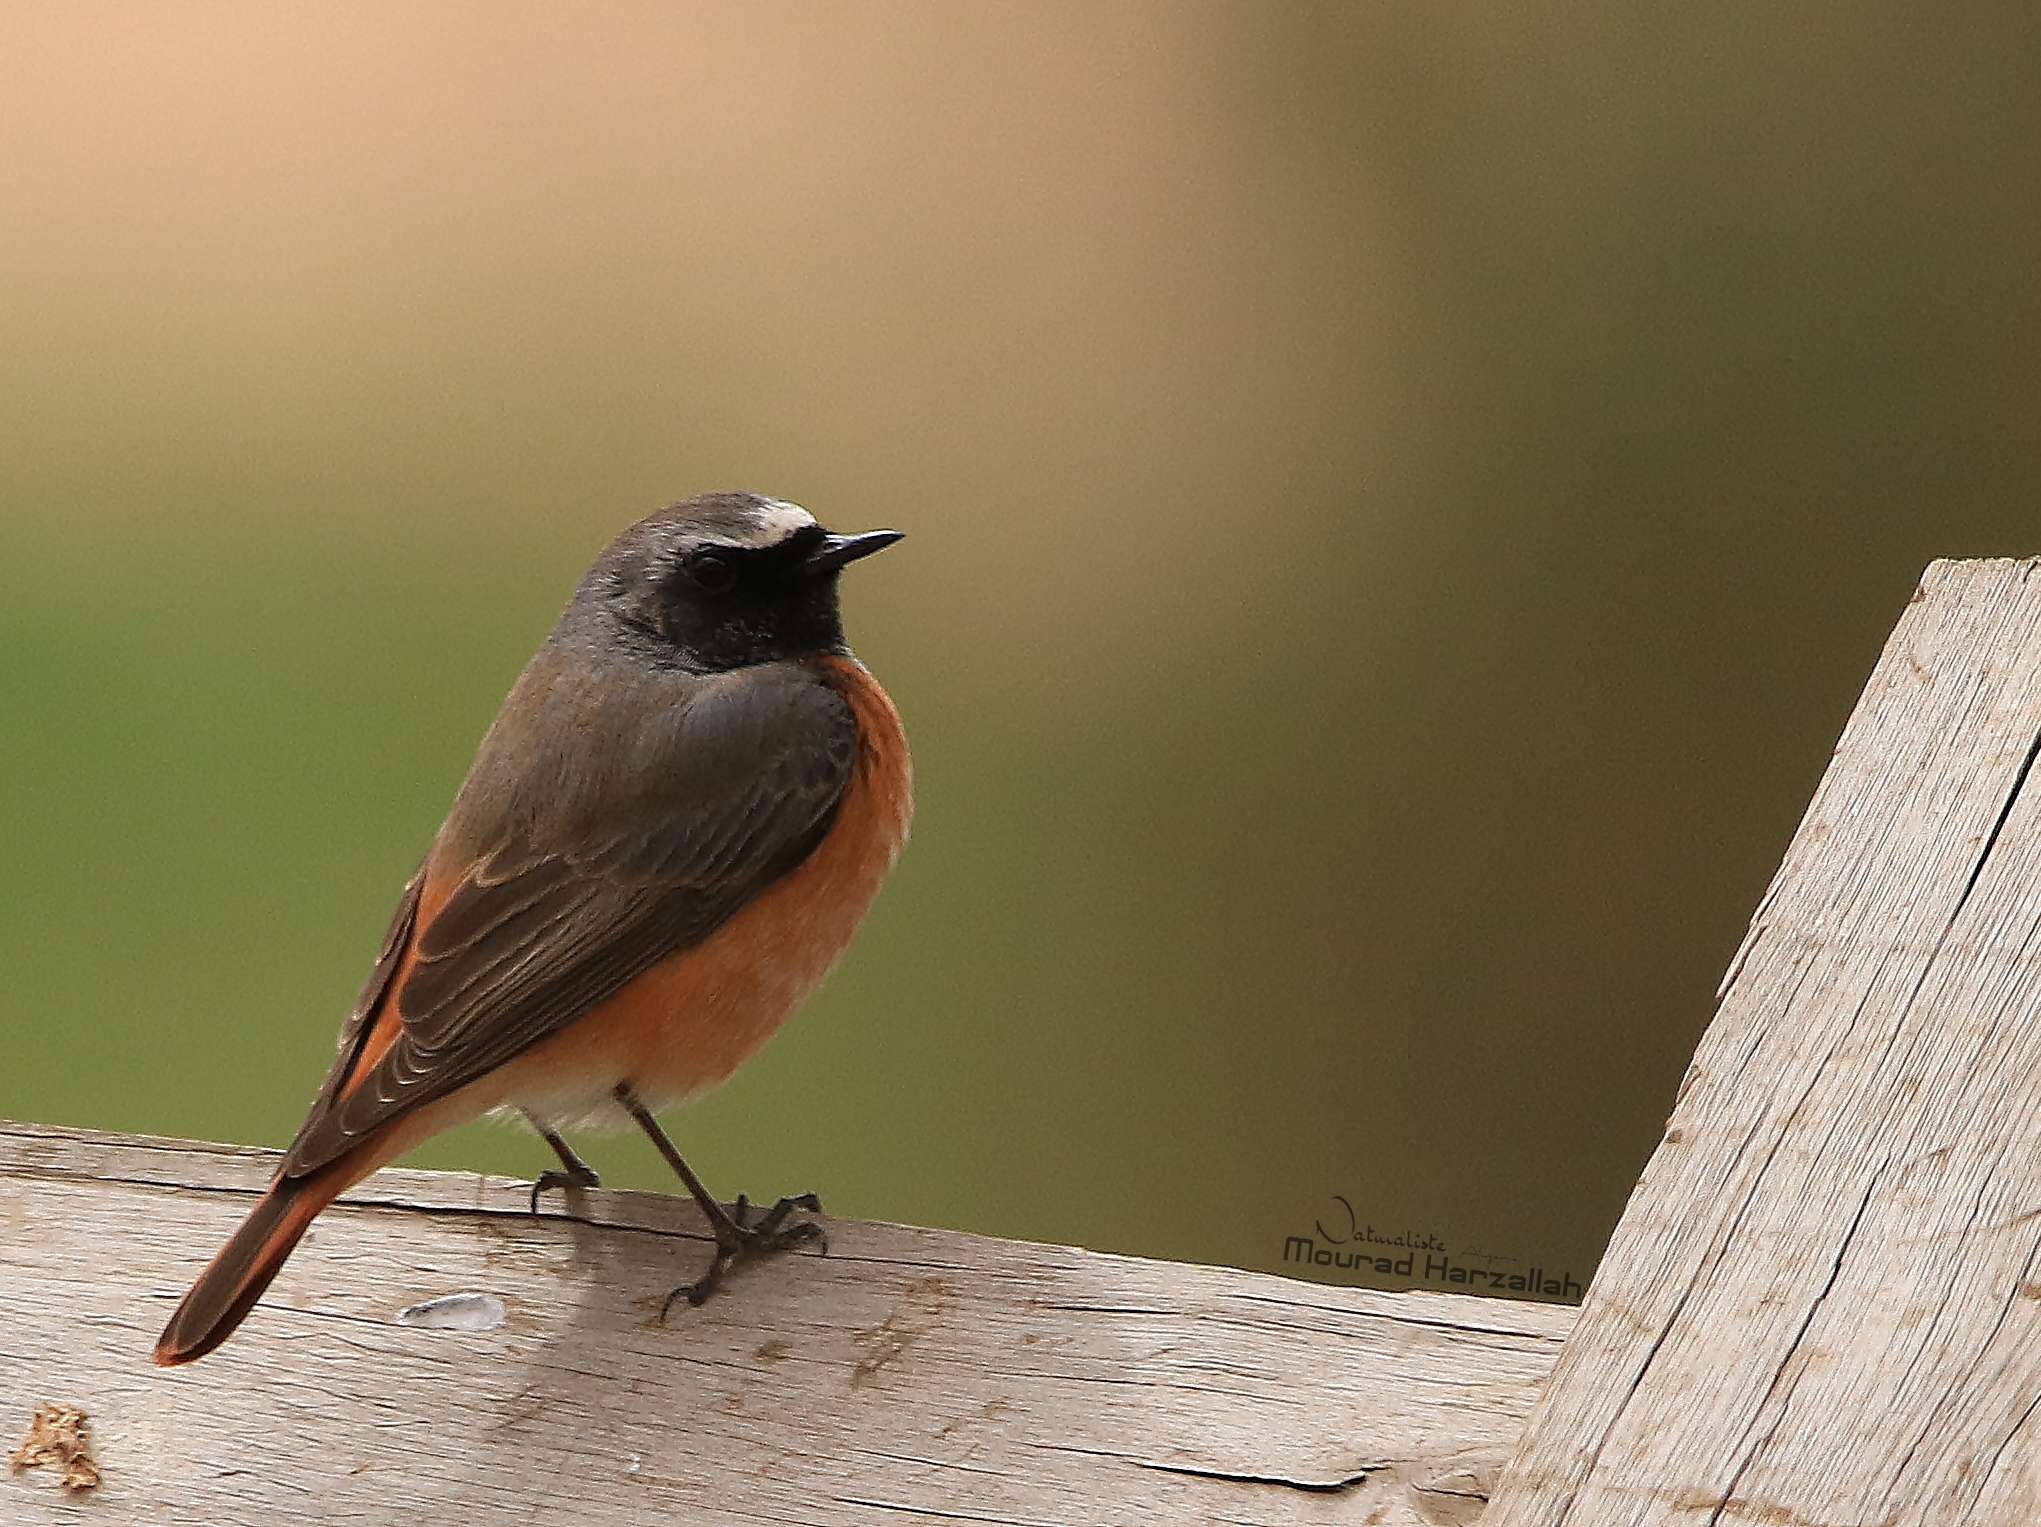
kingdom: Animalia
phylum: Chordata
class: Aves
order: Passeriformes
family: Muscicapidae
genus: Phoenicurus
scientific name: Phoenicurus phoenicurus
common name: Common redstart
